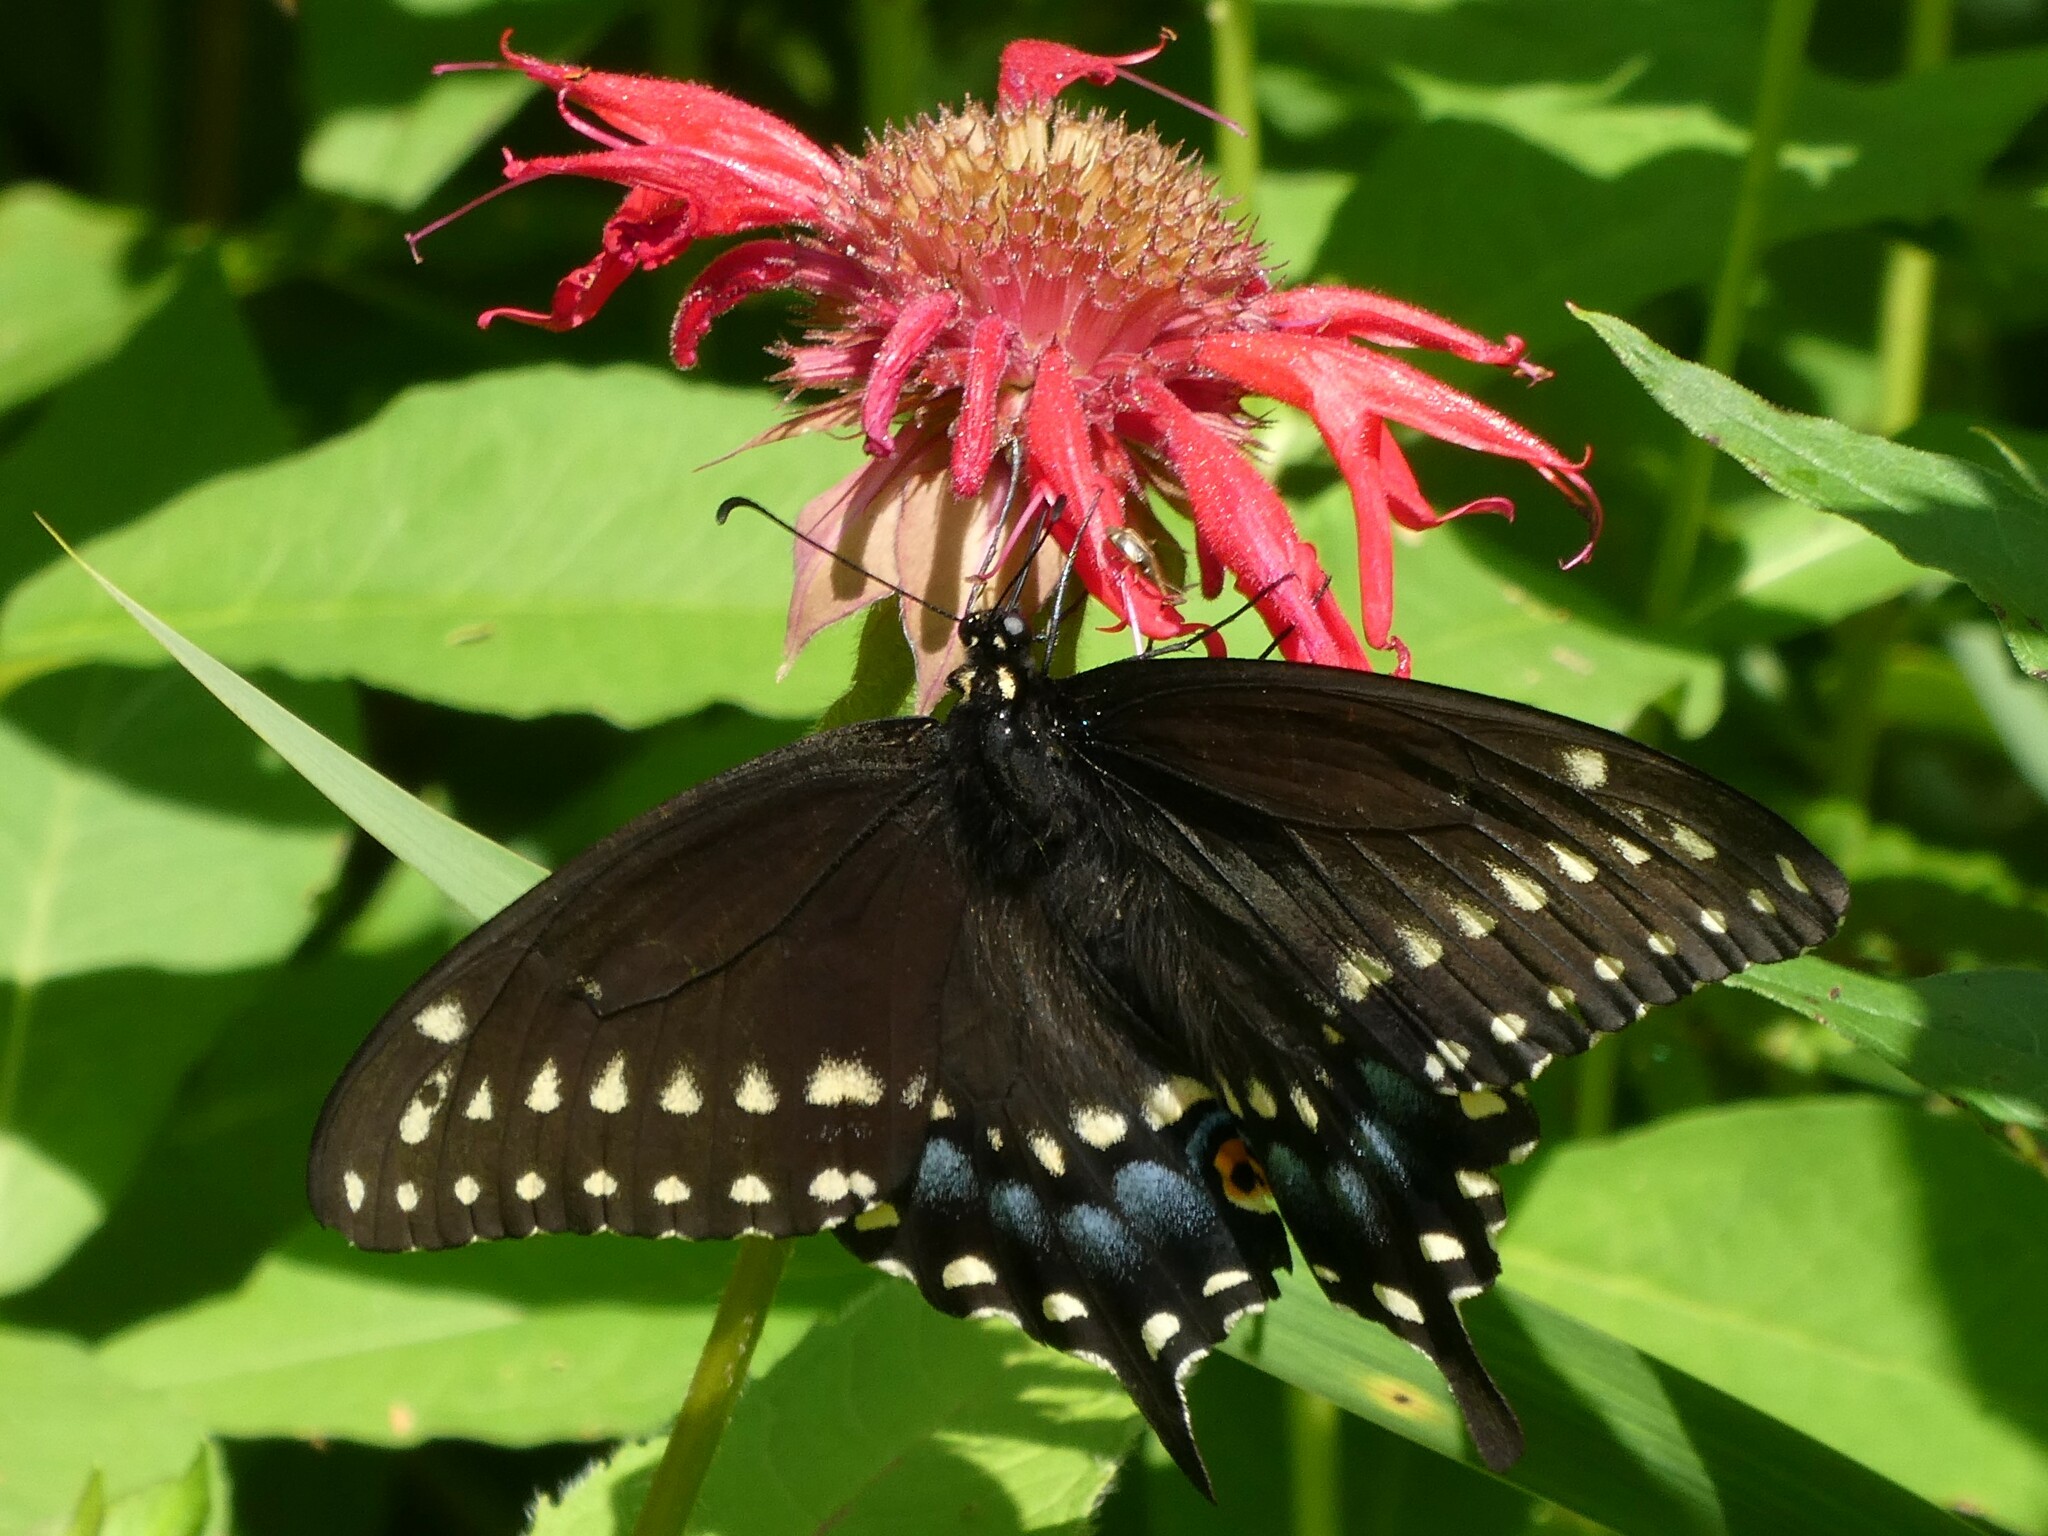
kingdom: Animalia
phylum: Arthropoda
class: Insecta
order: Lepidoptera
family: Papilionidae
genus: Papilio
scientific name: Papilio polyxenes
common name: Black swallowtail
